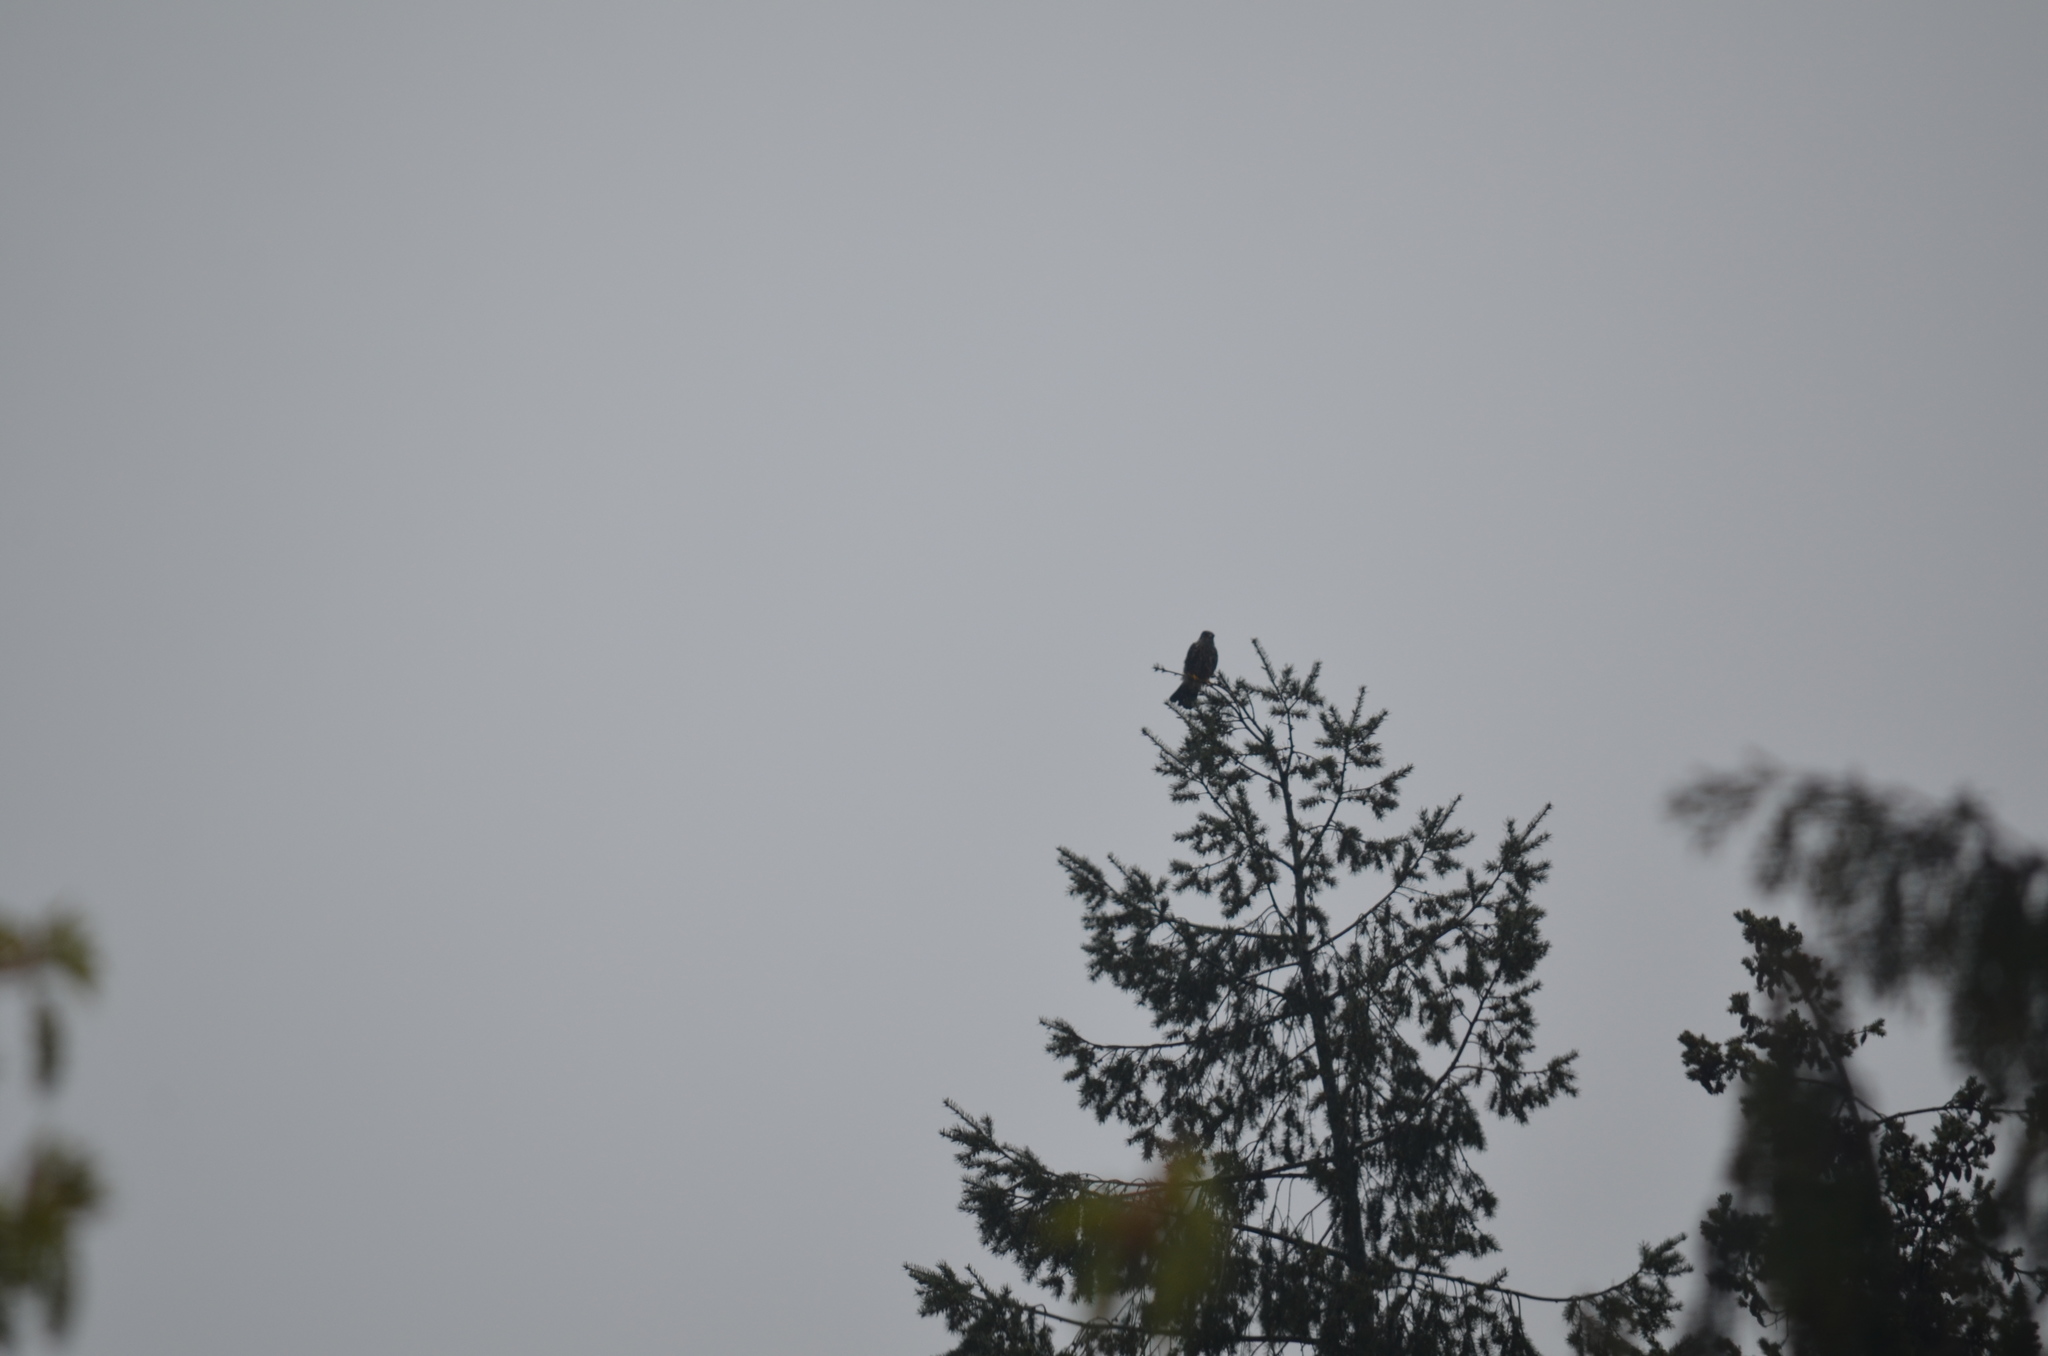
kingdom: Animalia
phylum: Chordata
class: Aves
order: Falconiformes
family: Falconidae
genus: Falco
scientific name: Falco columbarius
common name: Merlin
